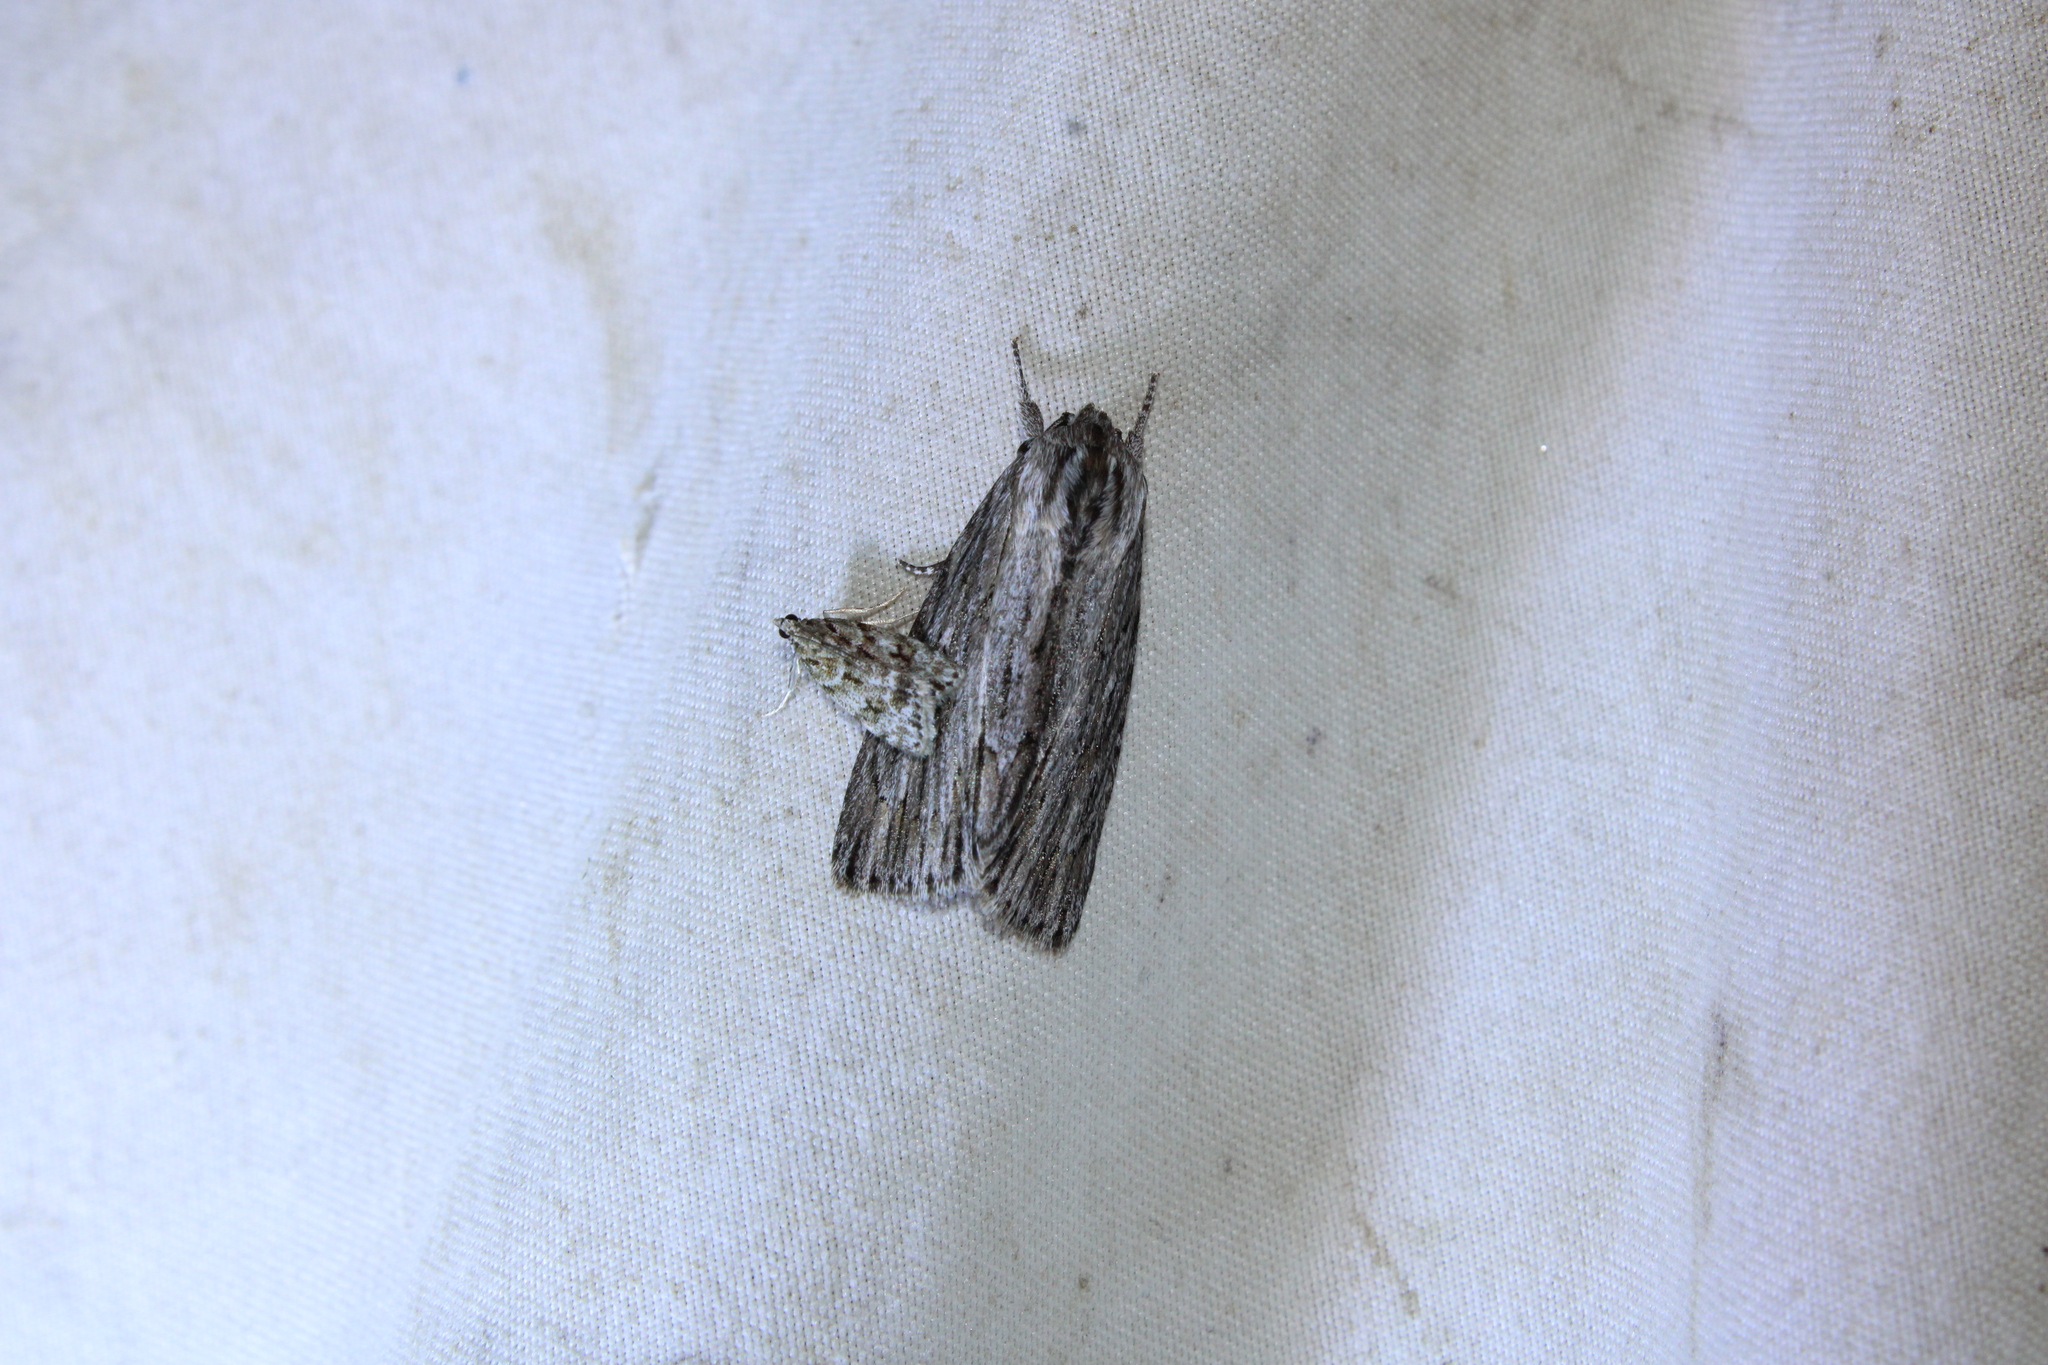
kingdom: Animalia
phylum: Arthropoda
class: Insecta
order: Lepidoptera
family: Noctuidae
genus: Acronicta
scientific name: Acronicta lithospila
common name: Streaked dagger
